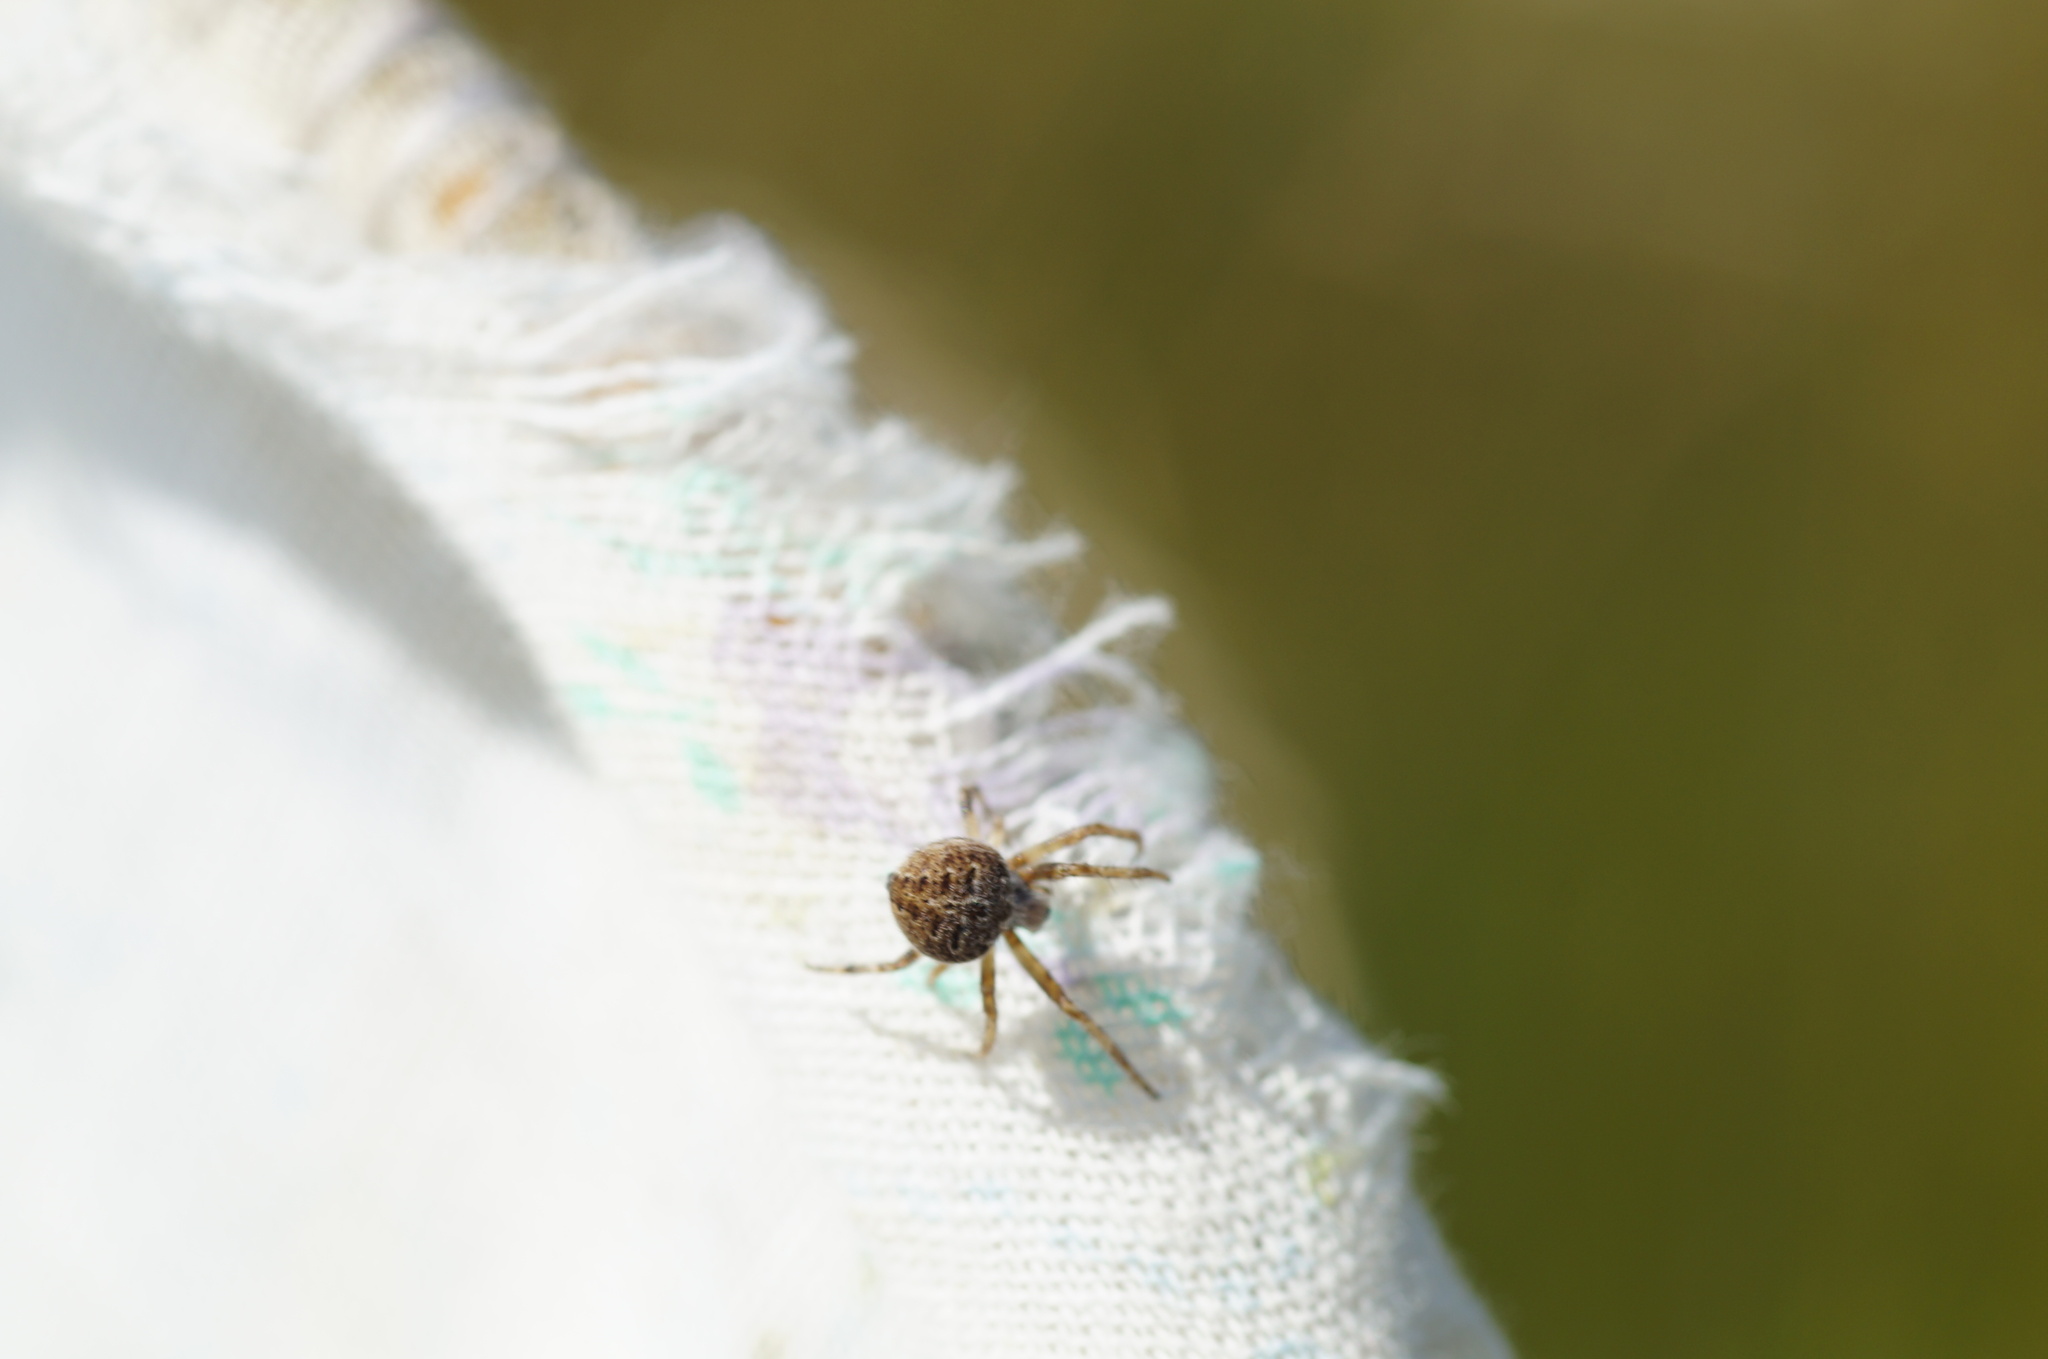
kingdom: Animalia
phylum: Arthropoda
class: Arachnida
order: Araneae
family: Araneidae
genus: Agalenatea
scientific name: Agalenatea redii
